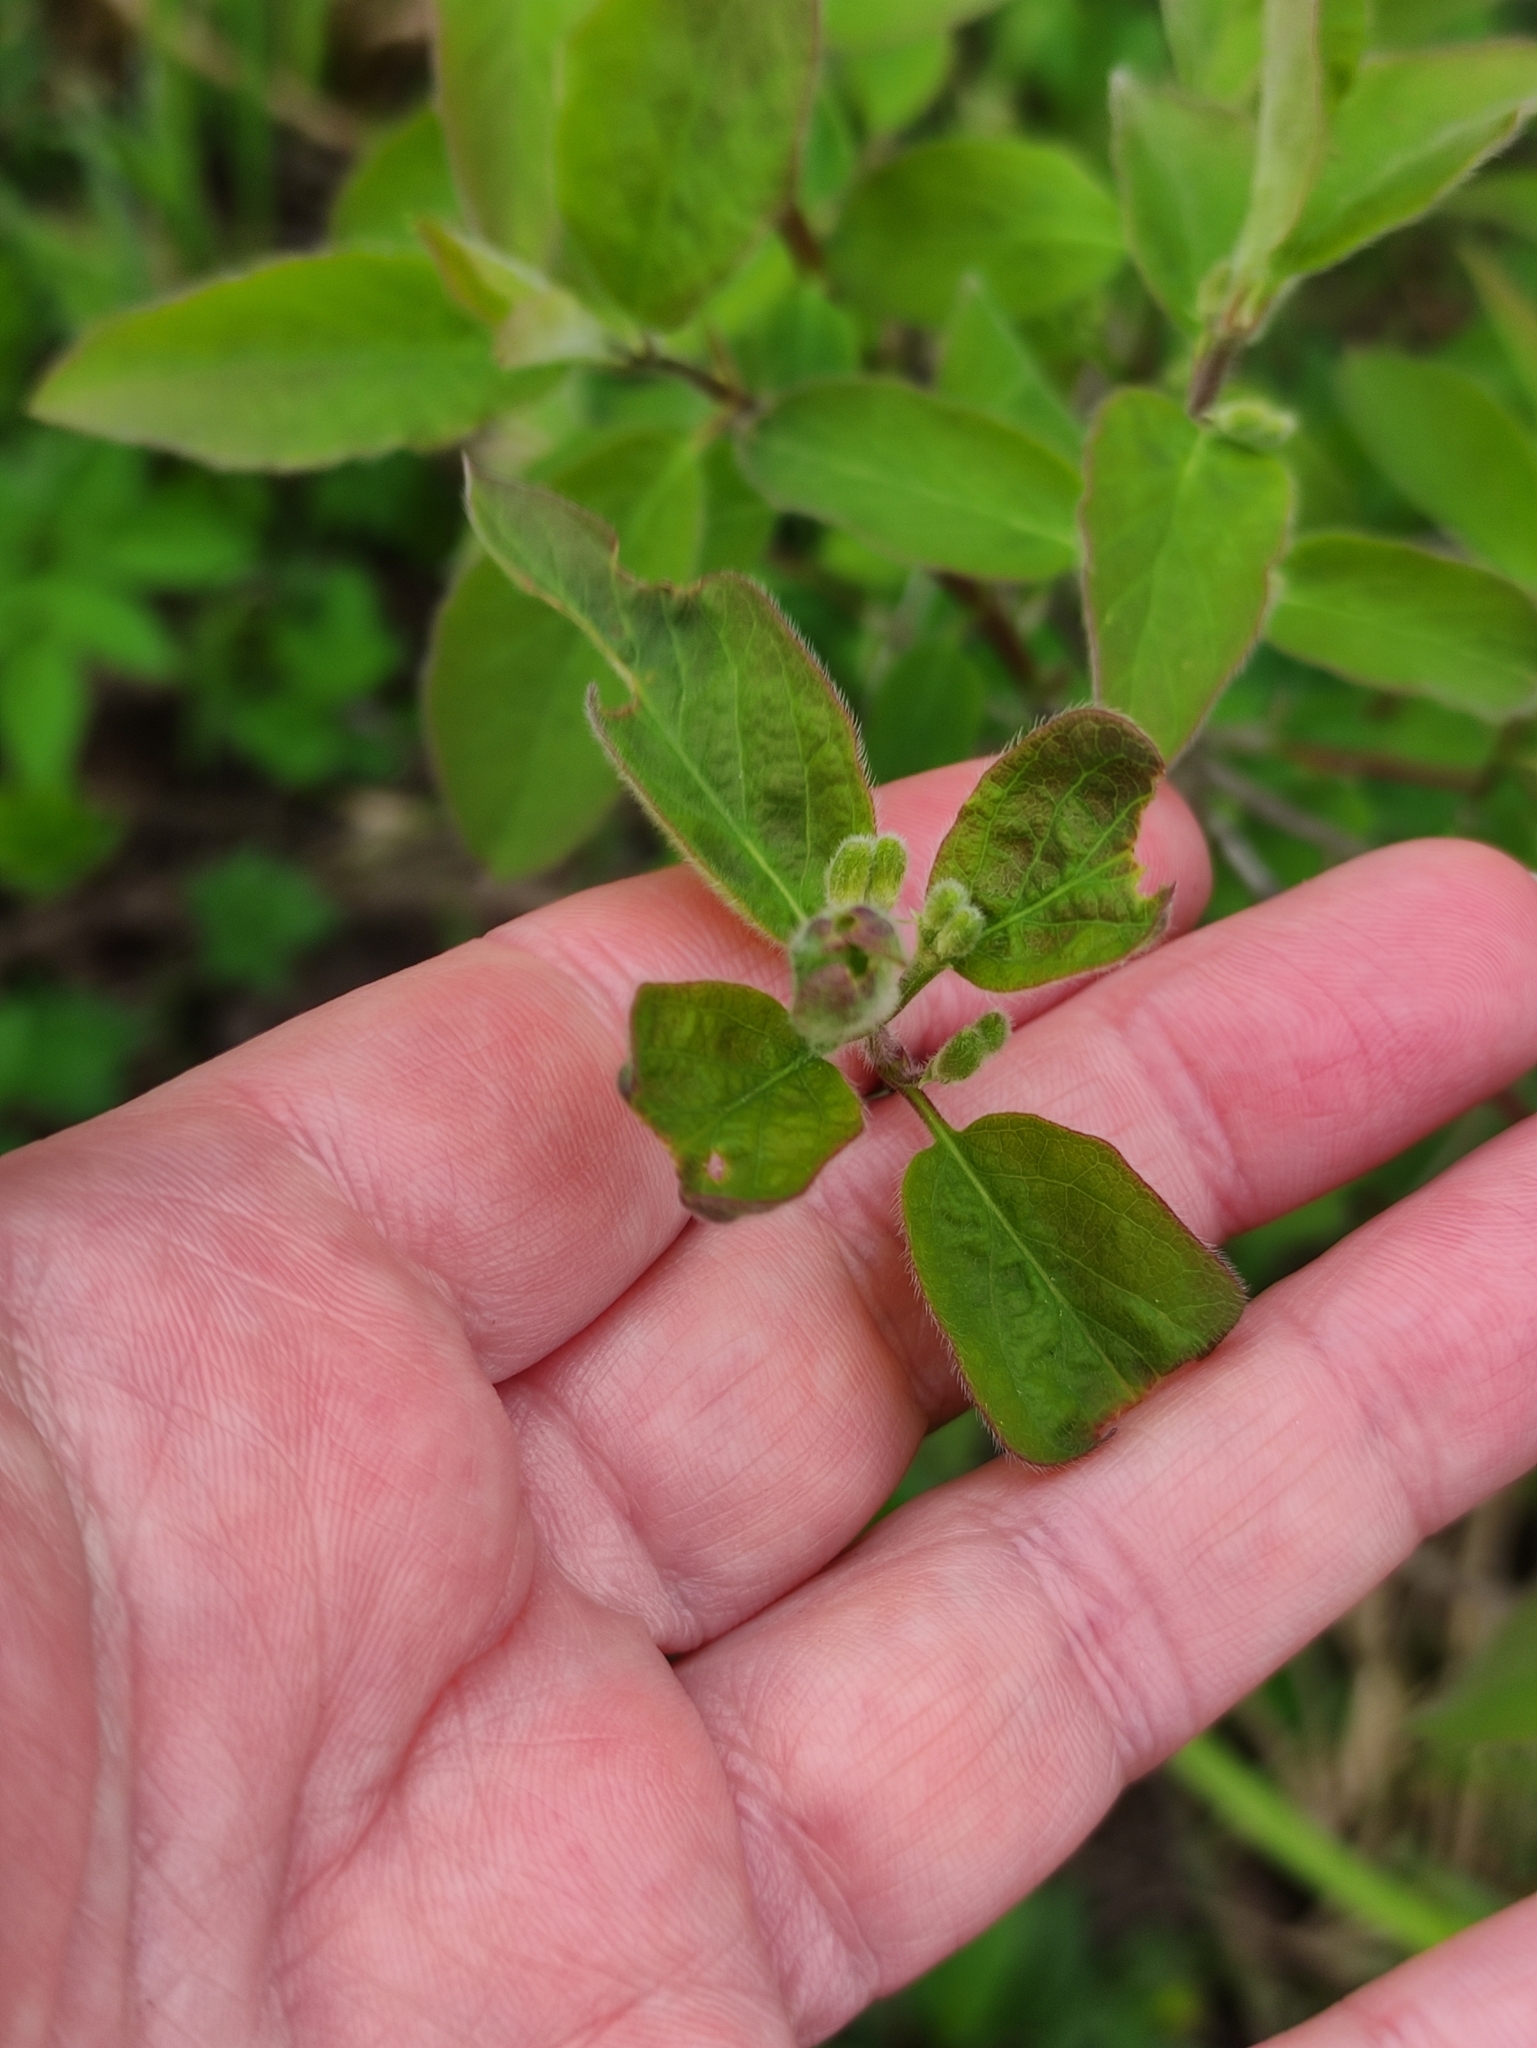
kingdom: Plantae
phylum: Tracheophyta
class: Magnoliopsida
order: Dipsacales
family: Caprifoliaceae
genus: Lonicera
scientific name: Lonicera xylosteum
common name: Fly honeysuckle
